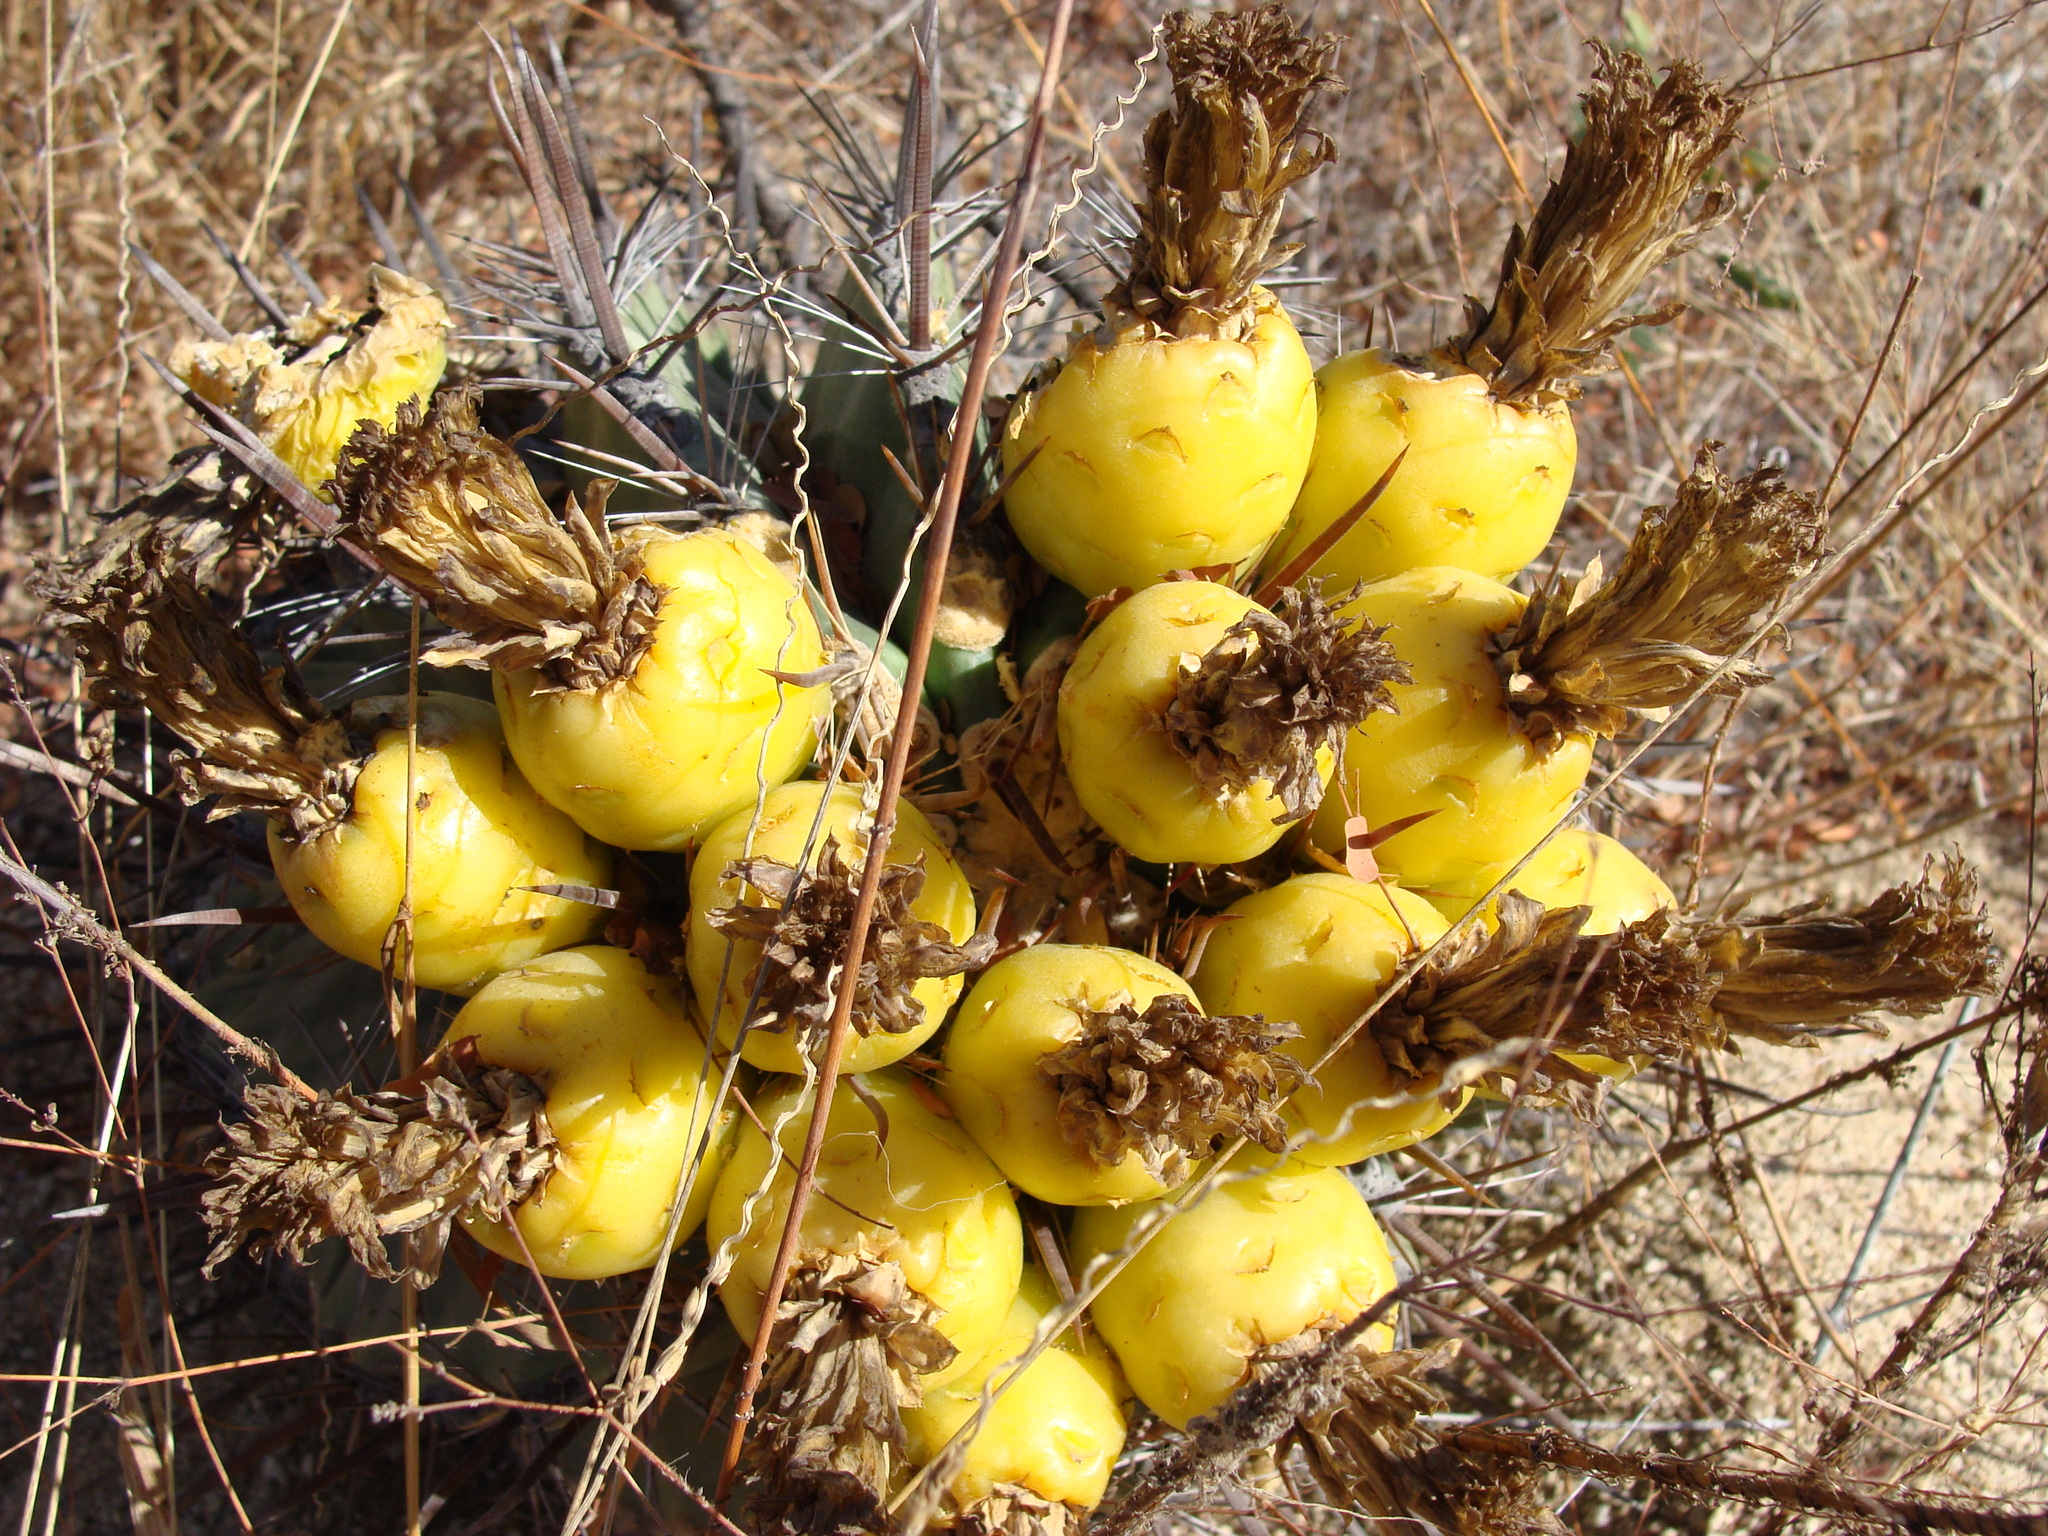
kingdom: Plantae
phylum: Tracheophyta
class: Magnoliopsida
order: Caryophyllales
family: Cactaceae
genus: Ferocactus
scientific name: Ferocactus townsendianus
